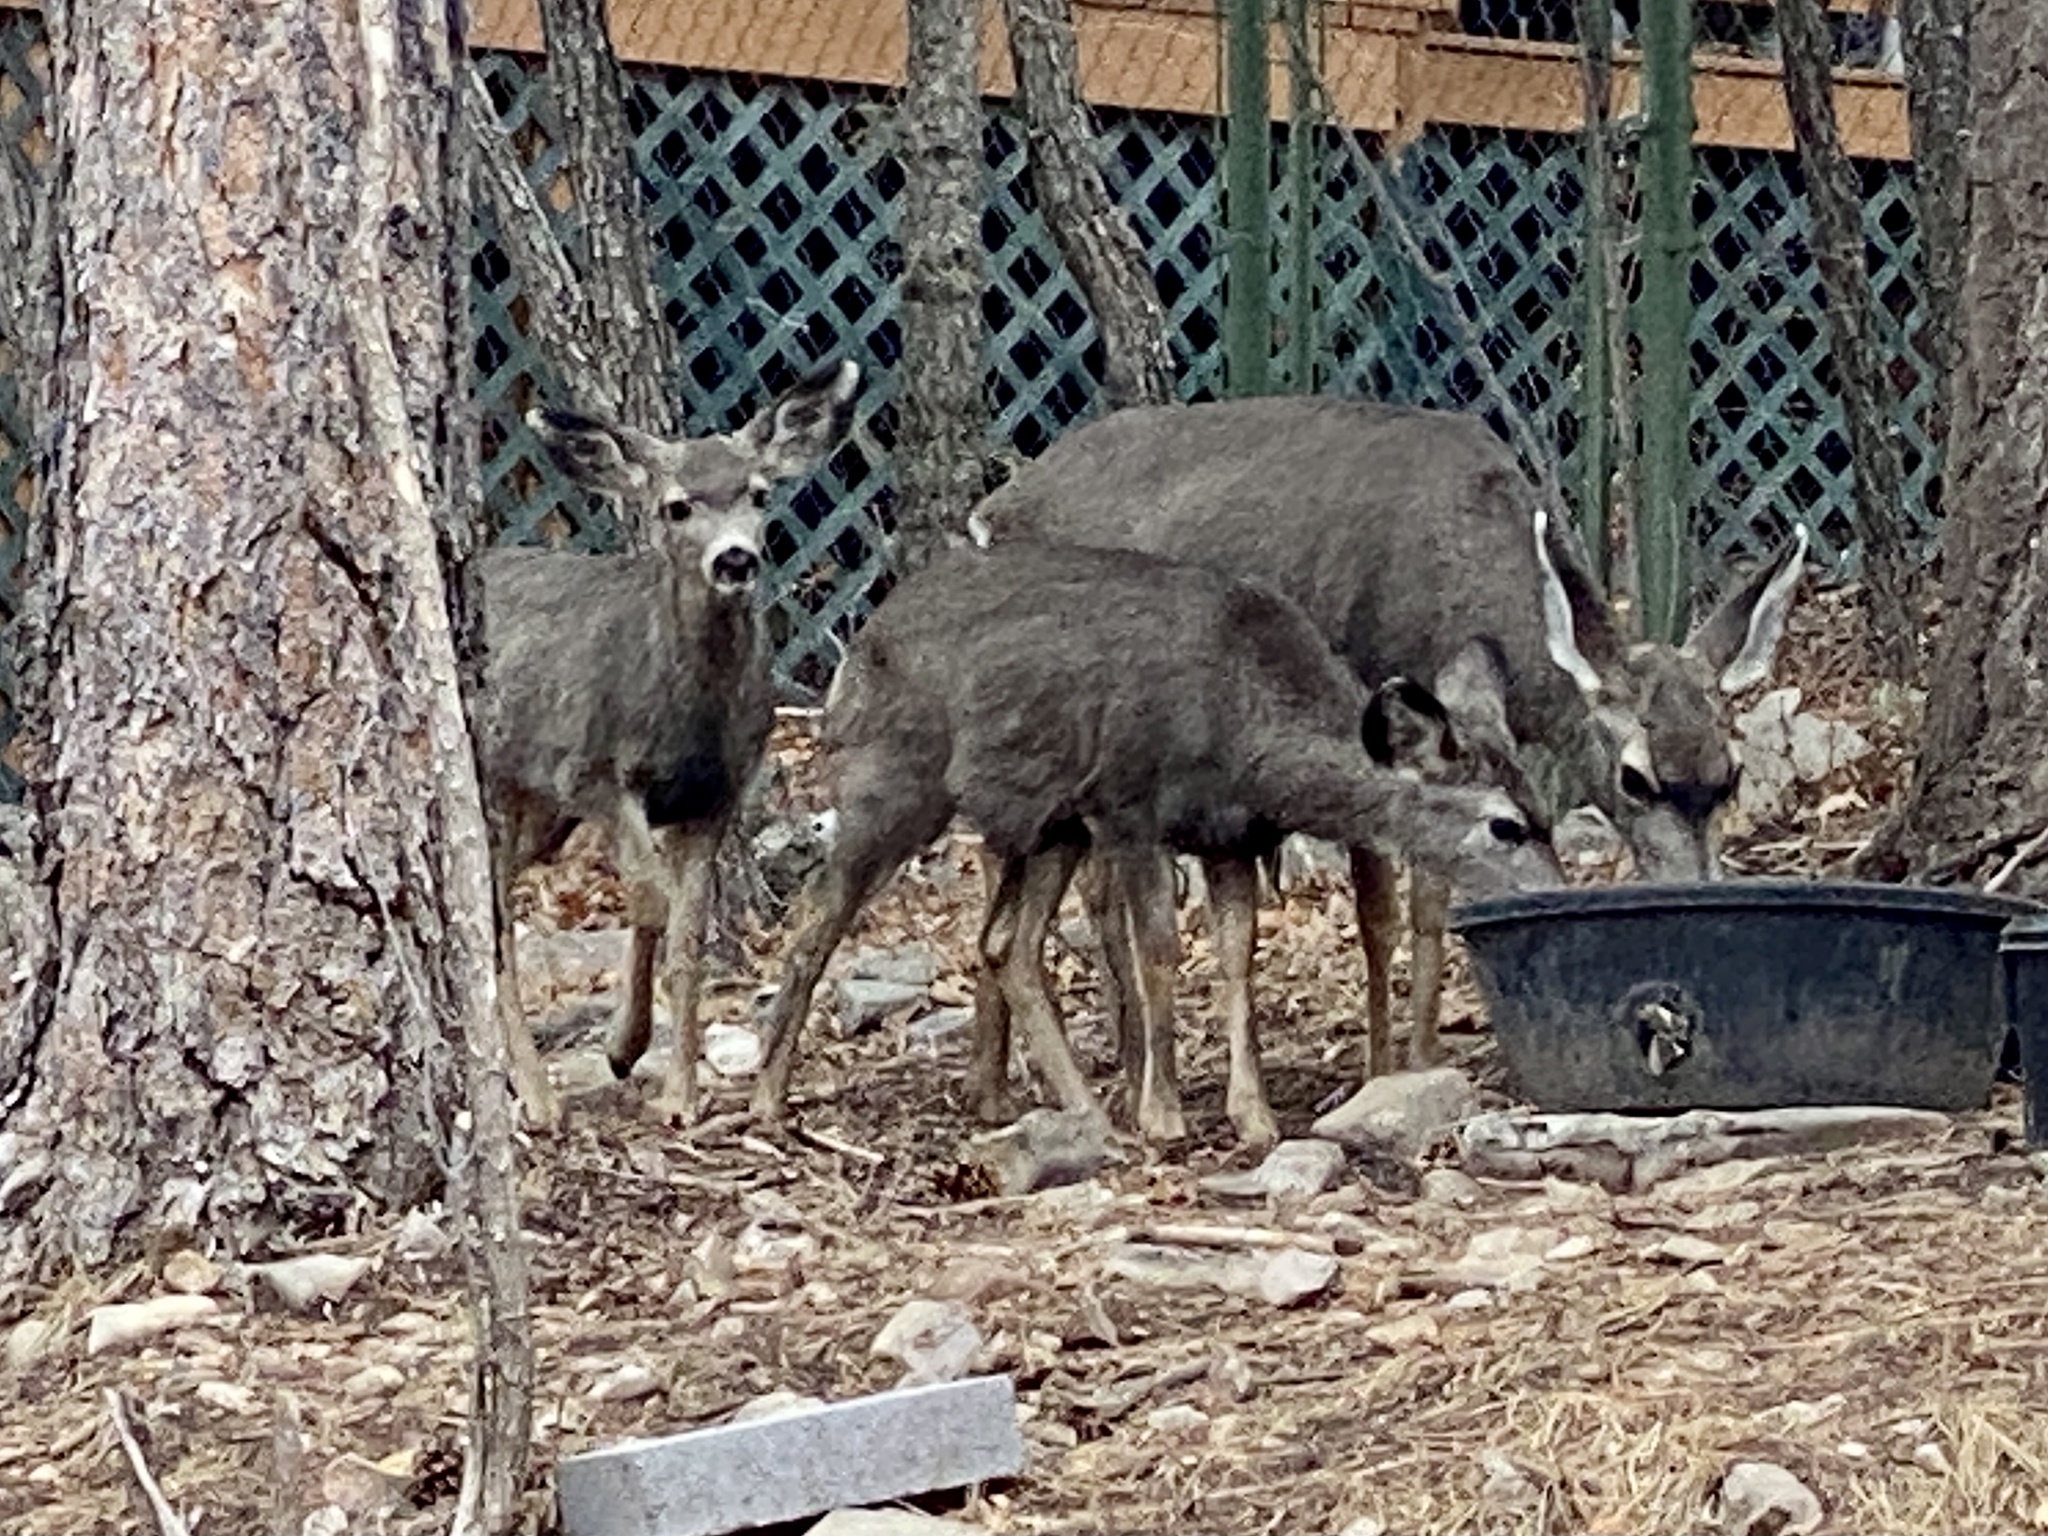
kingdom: Animalia
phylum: Chordata
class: Mammalia
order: Artiodactyla
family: Cervidae
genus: Odocoileus
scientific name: Odocoileus hemionus
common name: Mule deer
